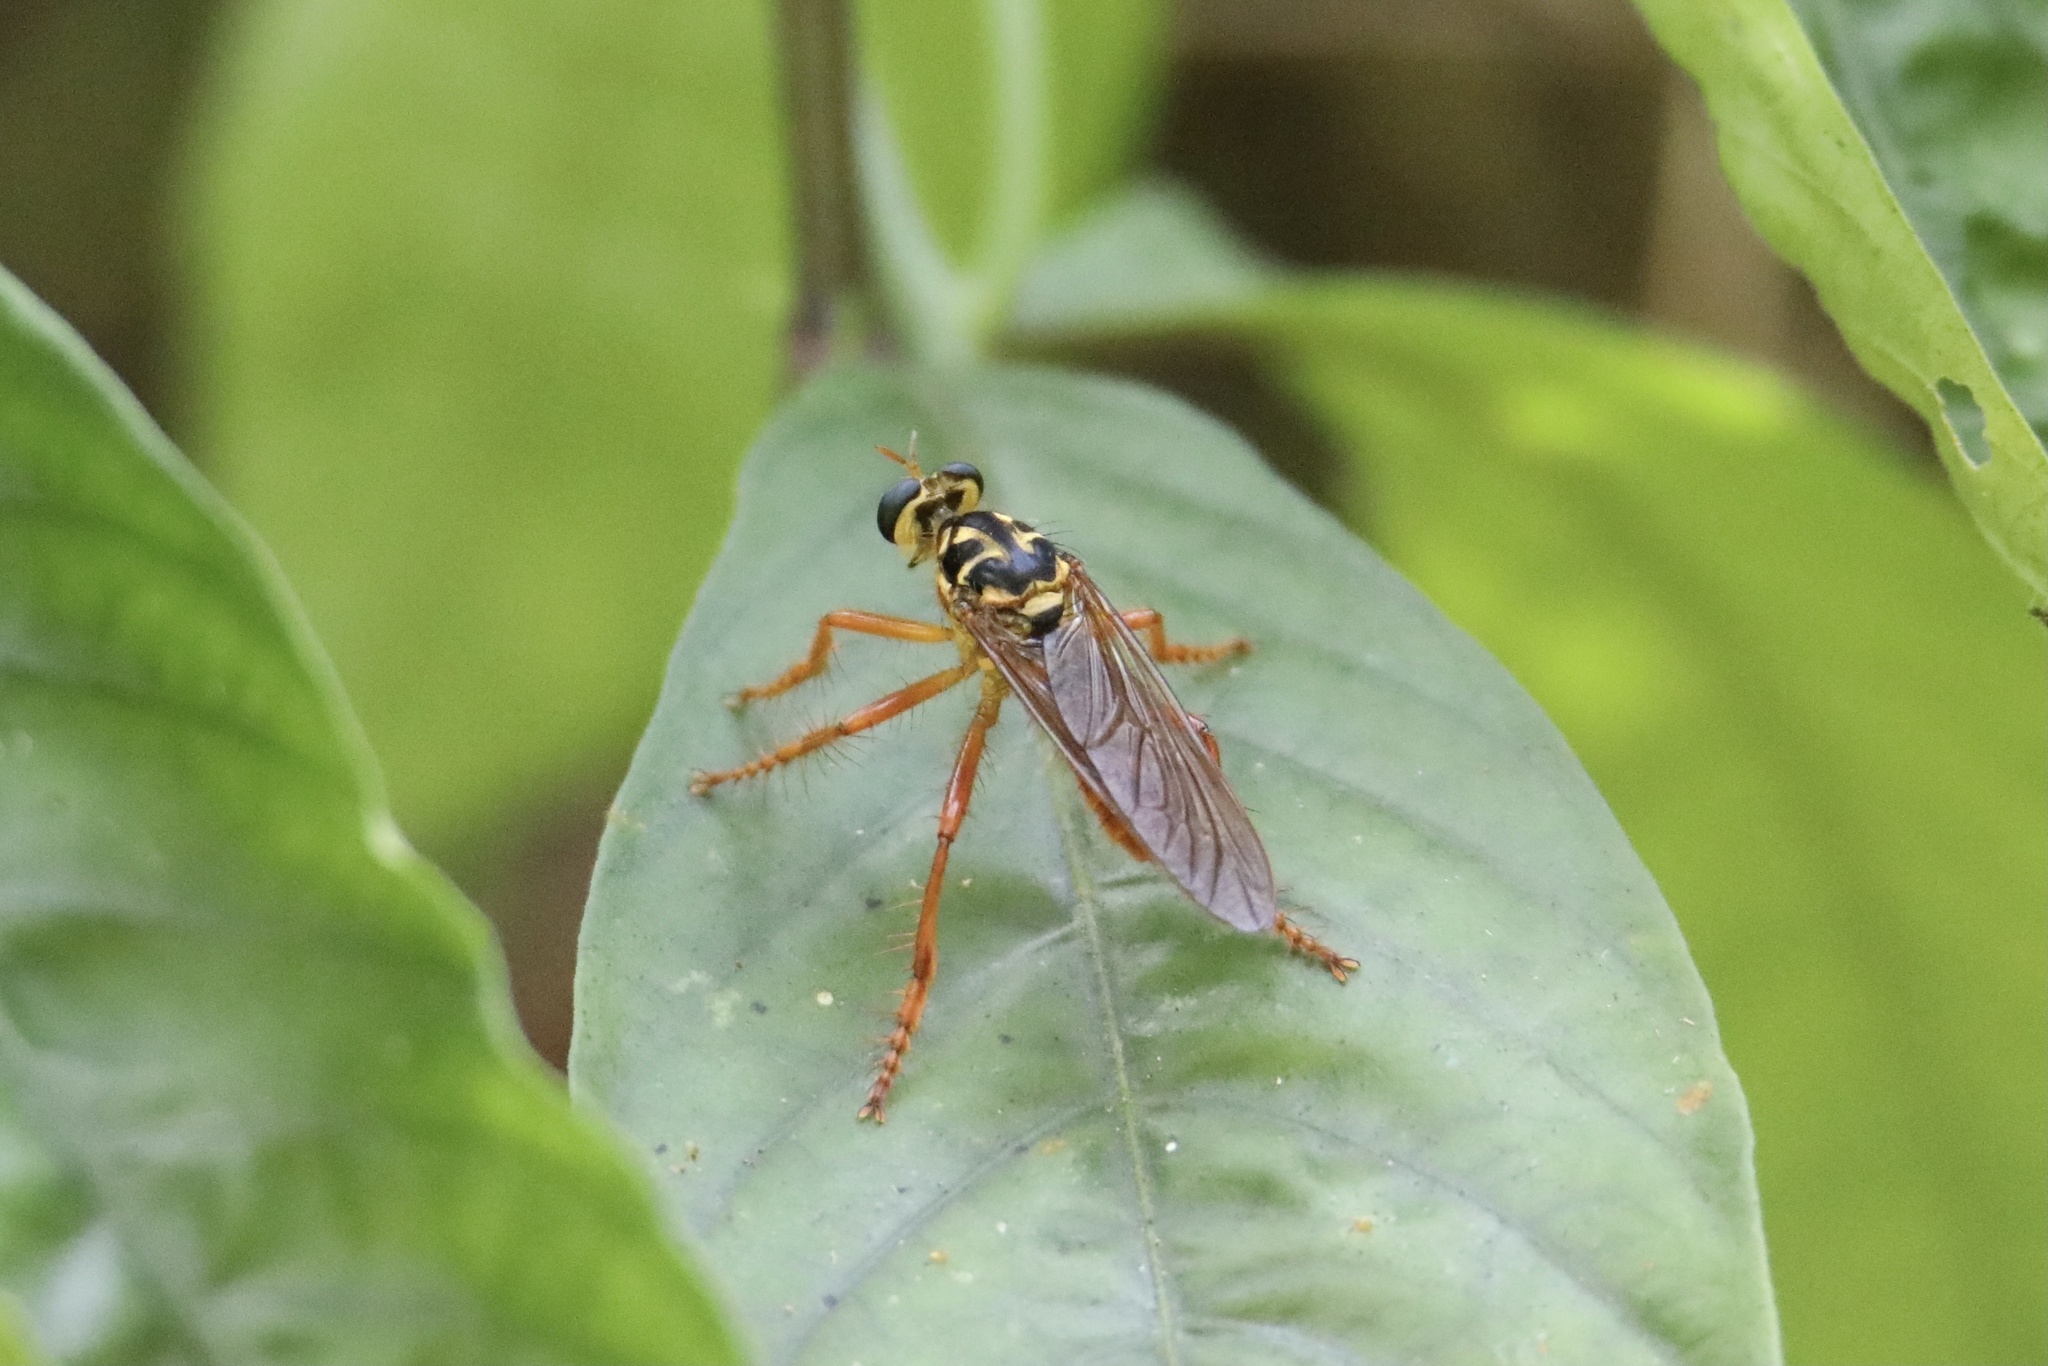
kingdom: Animalia
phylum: Arthropoda
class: Insecta
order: Diptera
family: Asilidae
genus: Smeryngolaphria
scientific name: Smeryngolaphria numitor
